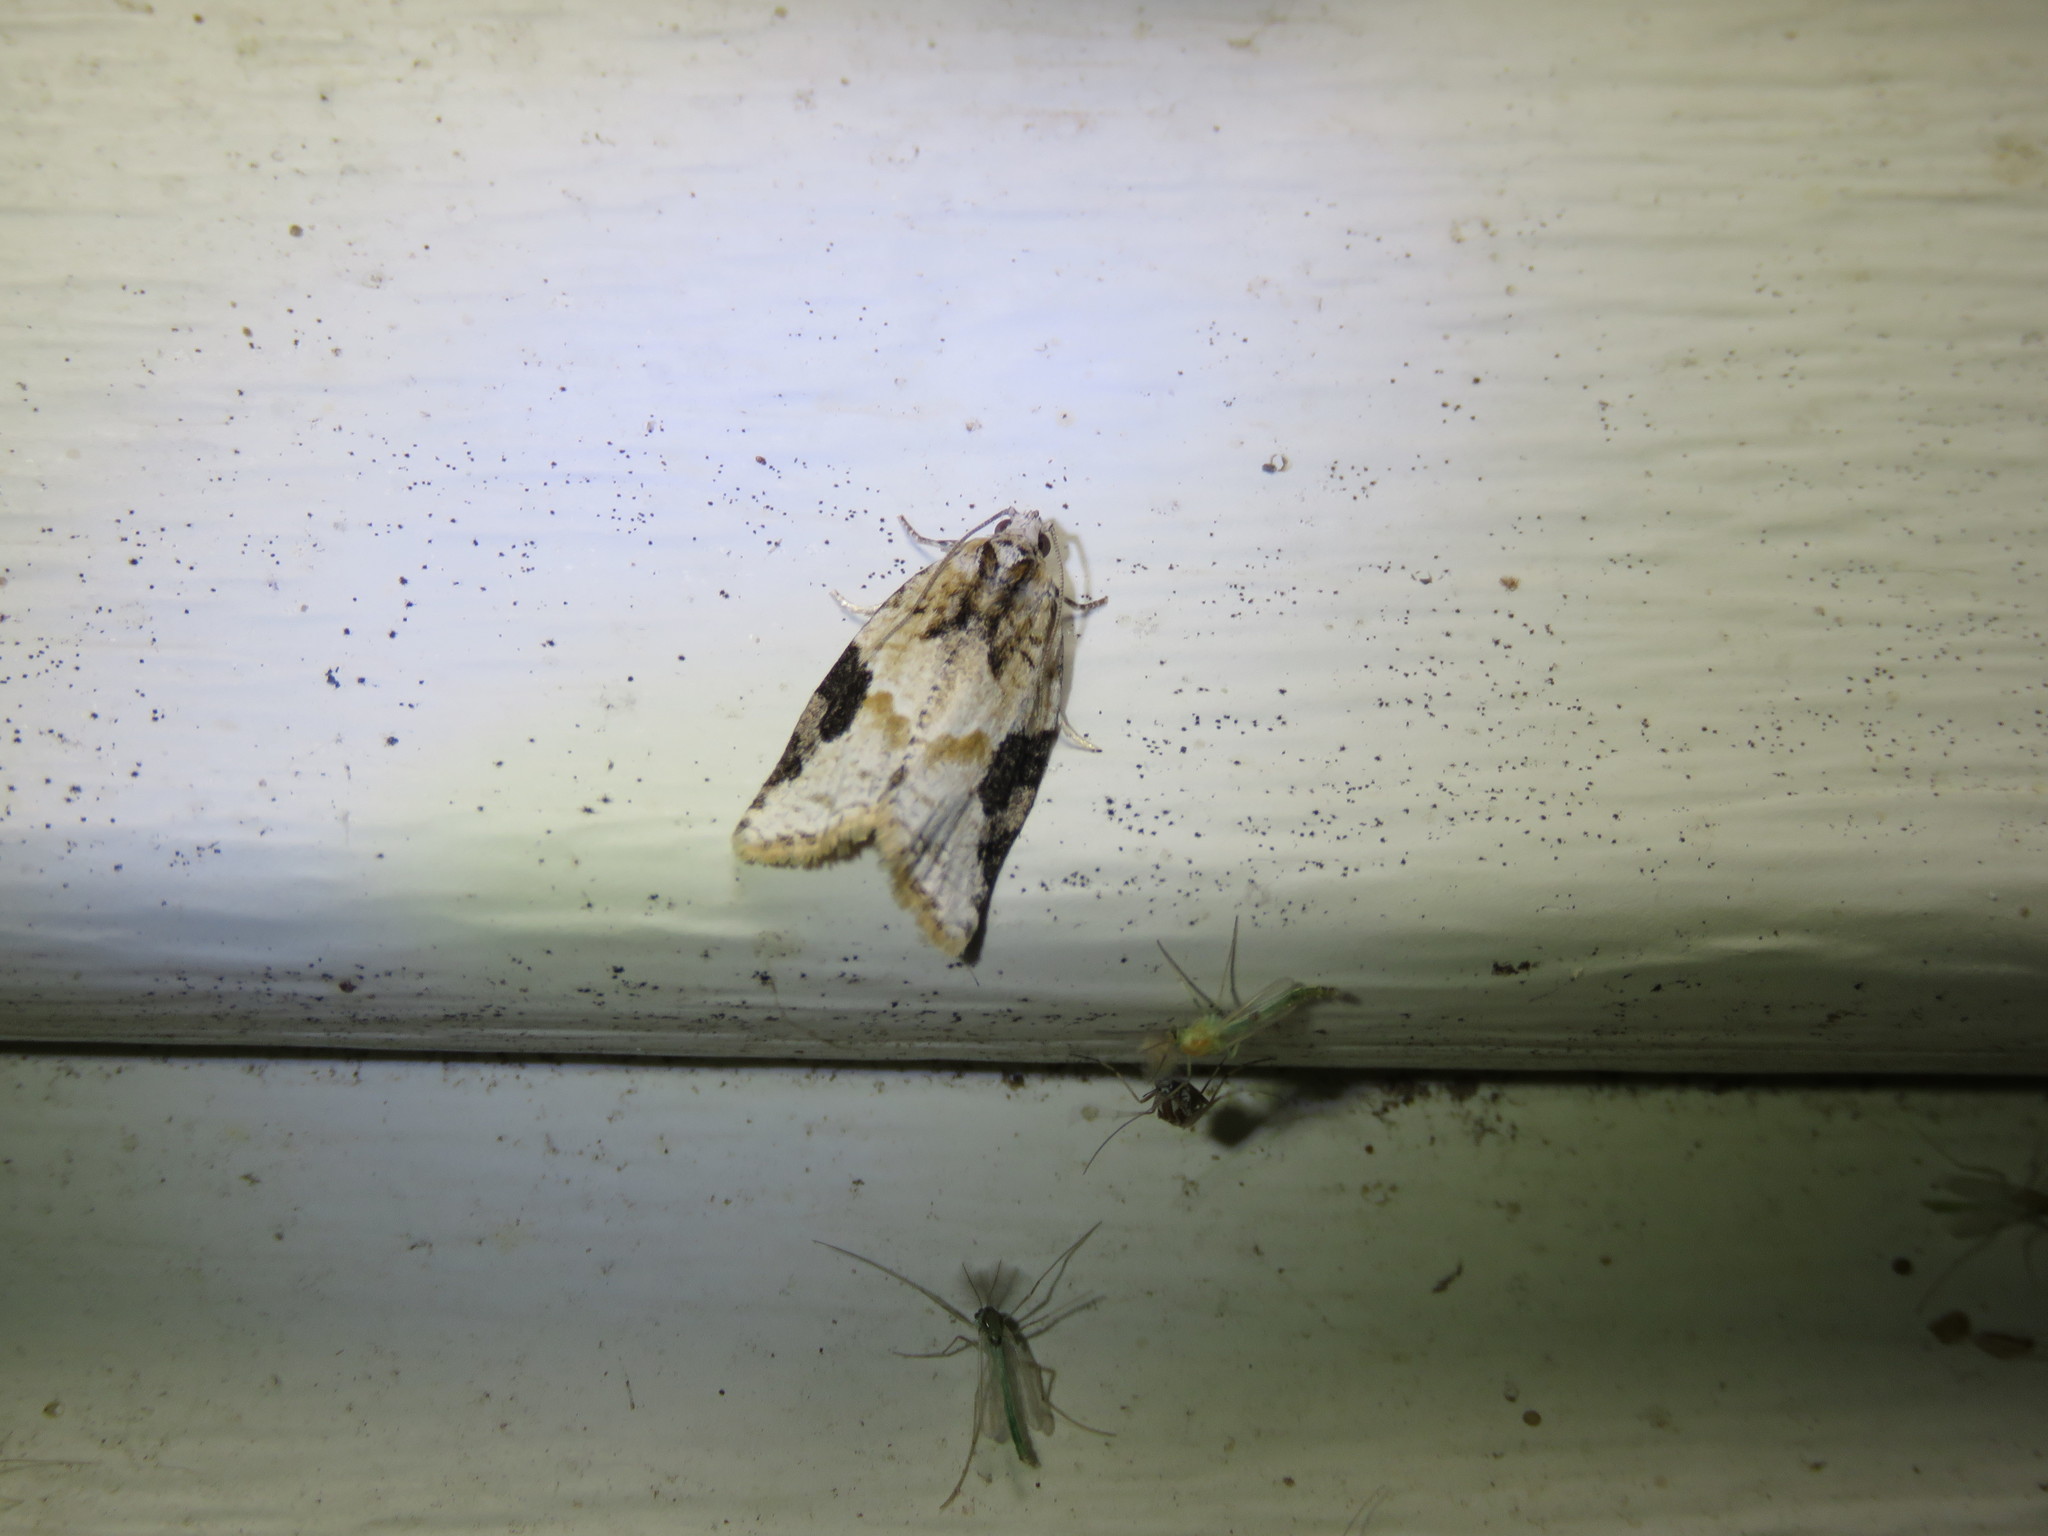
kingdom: Animalia
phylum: Arthropoda
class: Insecta
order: Lepidoptera
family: Tortricidae
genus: Argyrotaenia
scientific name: Argyrotaenia mariana
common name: Gray-banded leafroller moth
